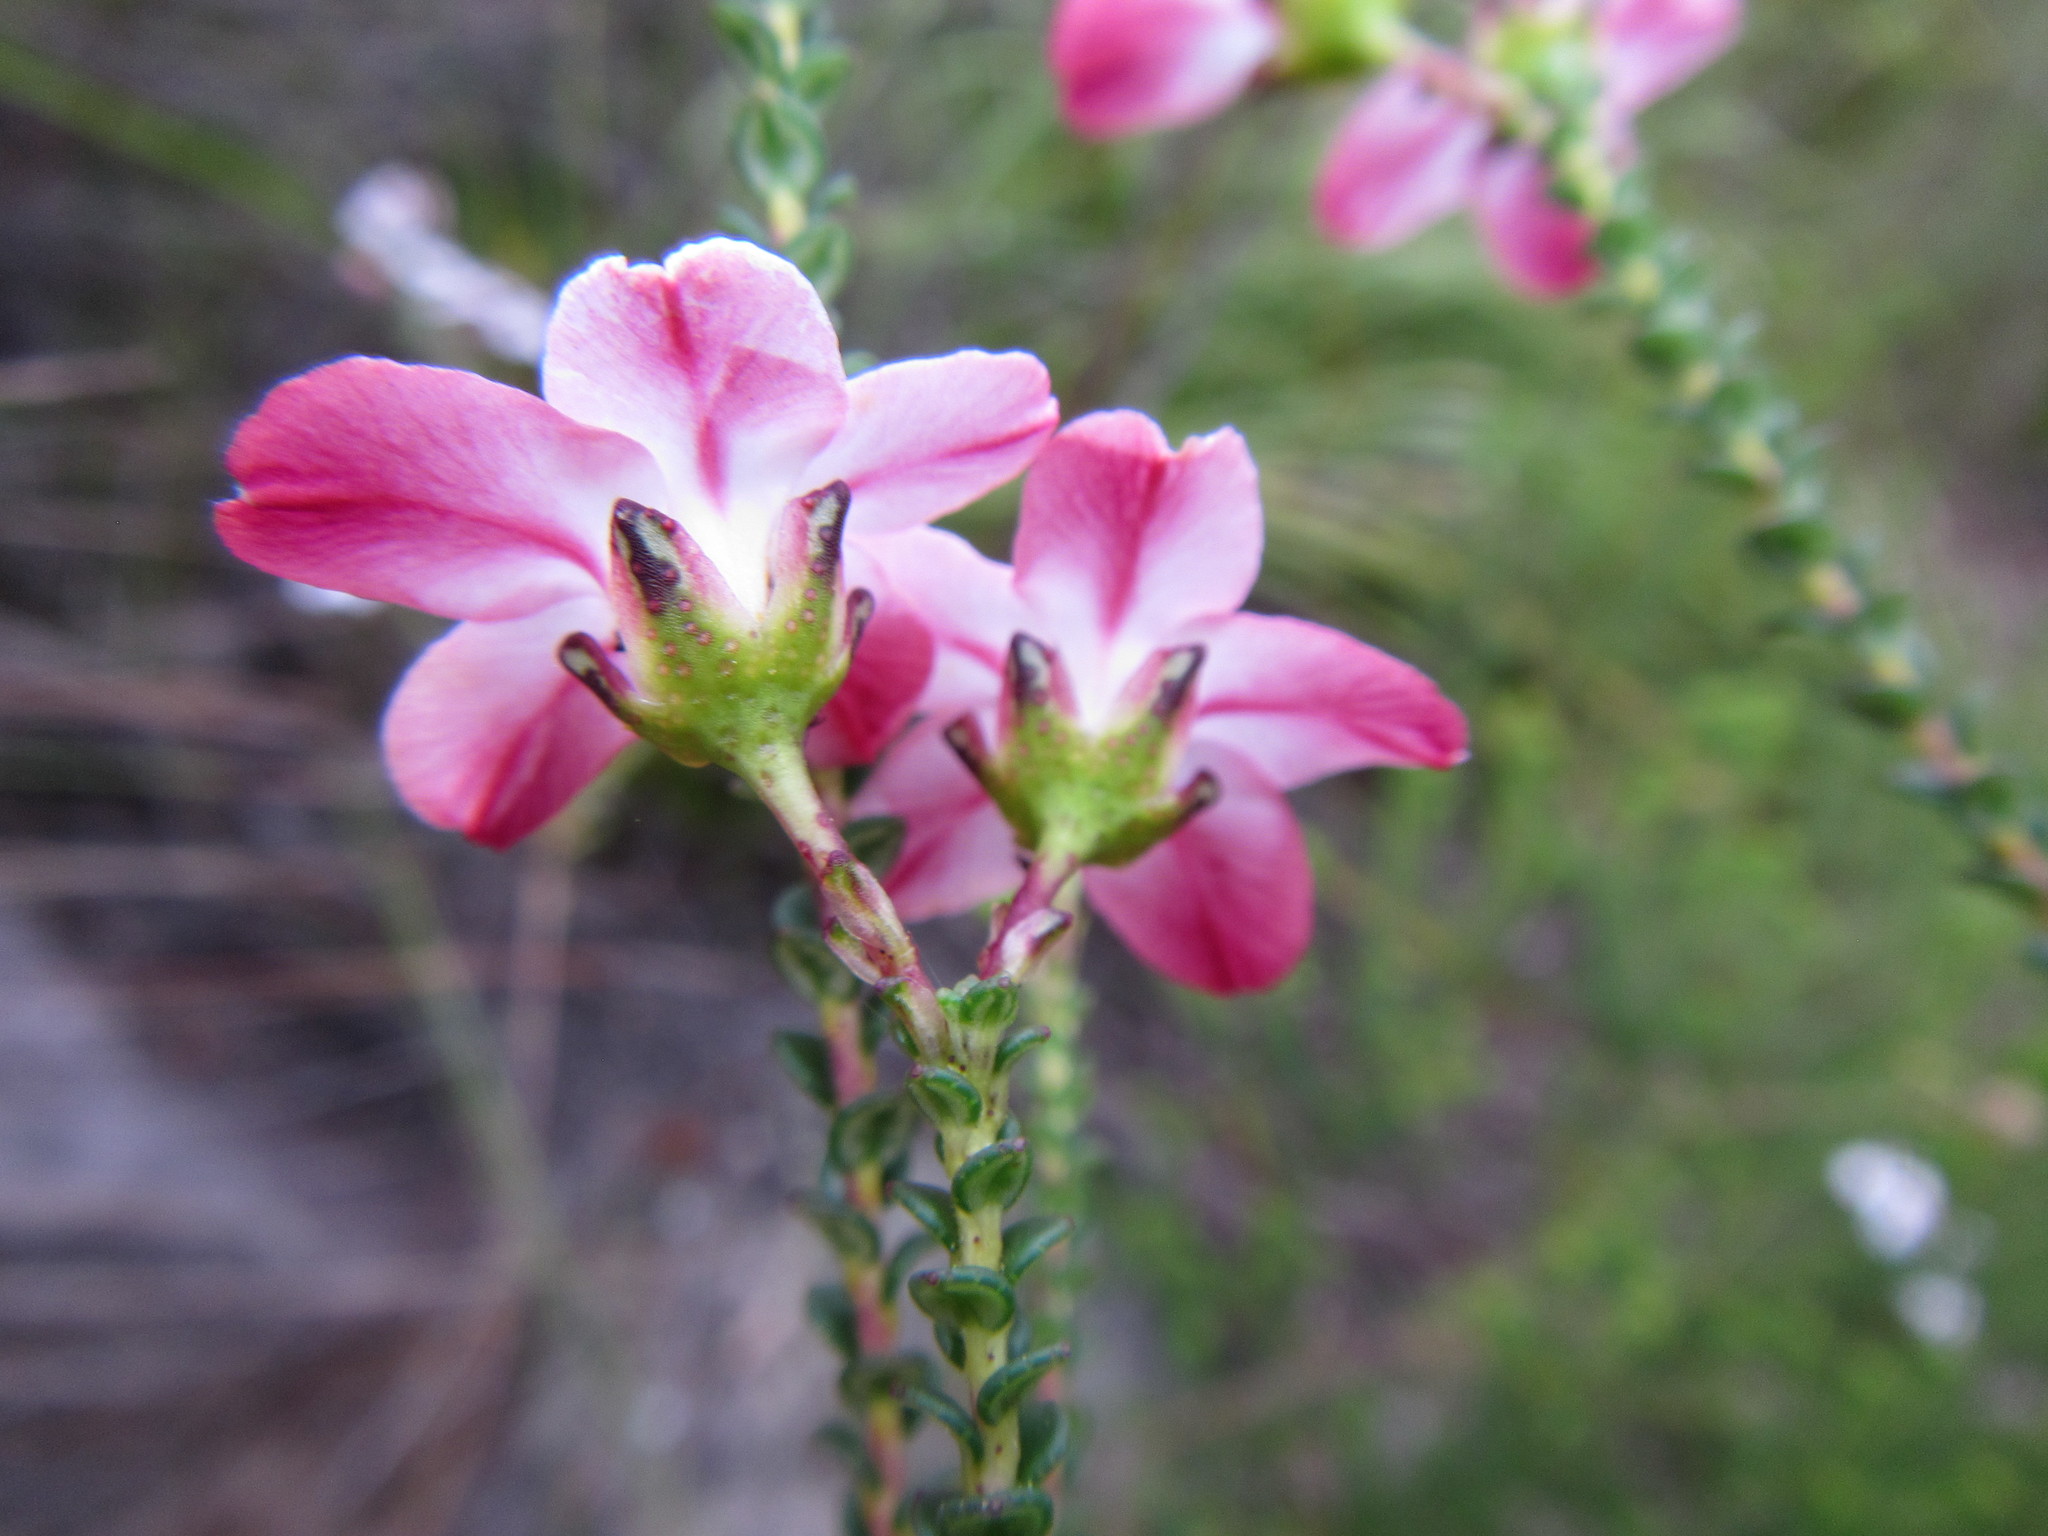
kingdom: Plantae
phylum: Tracheophyta
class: Magnoliopsida
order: Sapindales
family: Rutaceae
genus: Adenandra
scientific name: Adenandra brachyphylla
